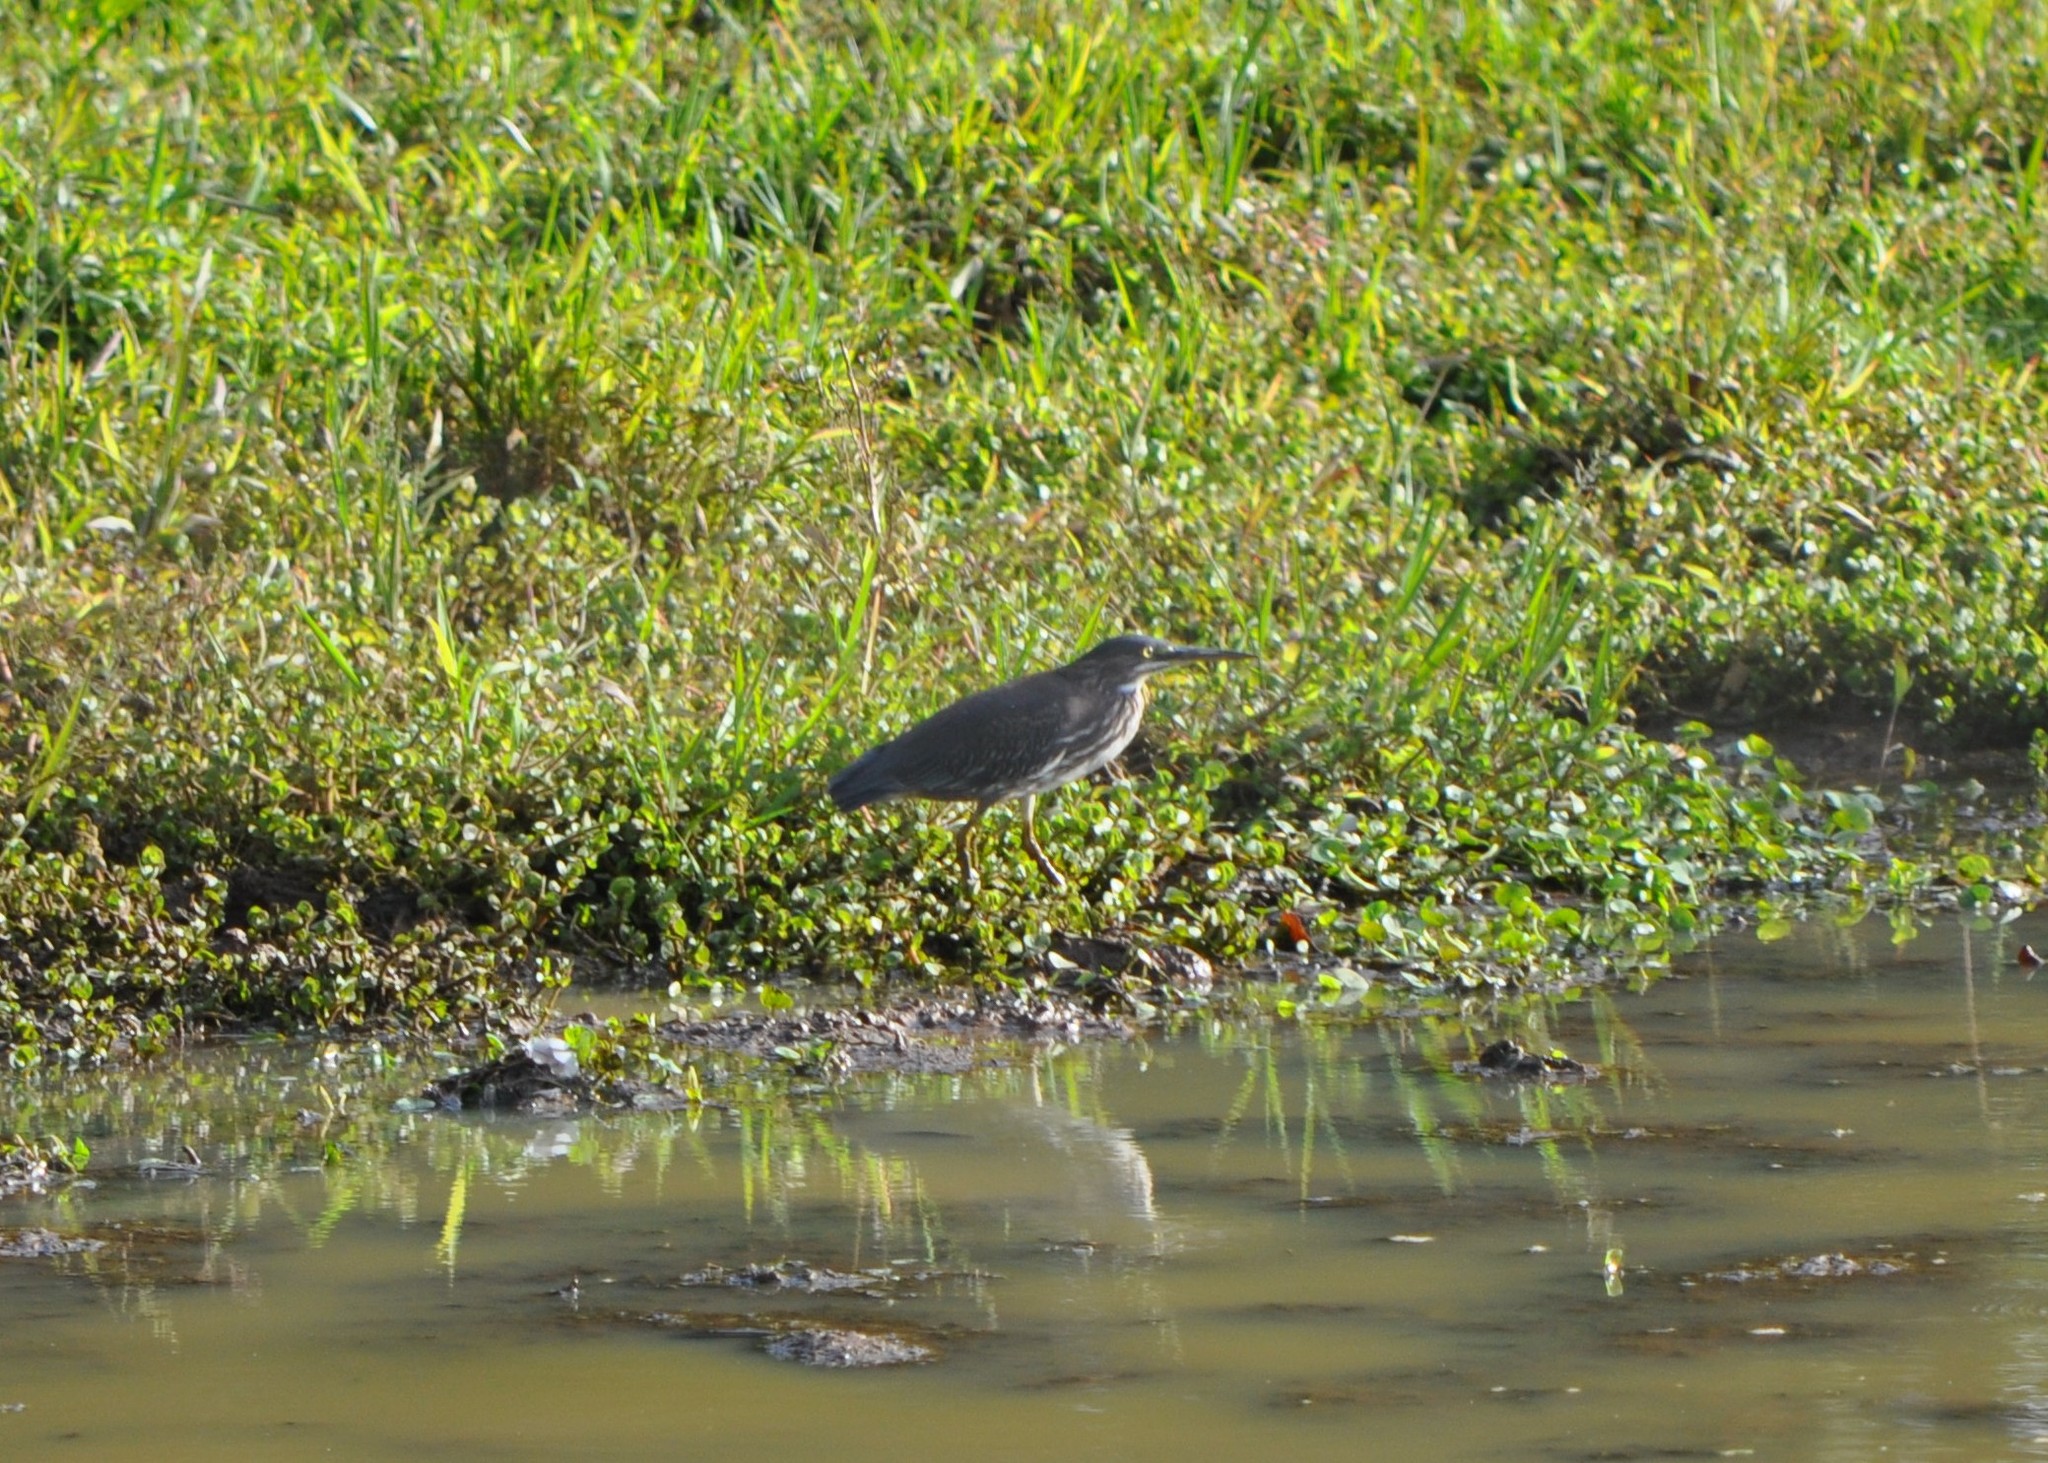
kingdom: Animalia
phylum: Chordata
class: Aves
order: Pelecaniformes
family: Ardeidae
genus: Butorides
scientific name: Butorides virescens
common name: Green heron
